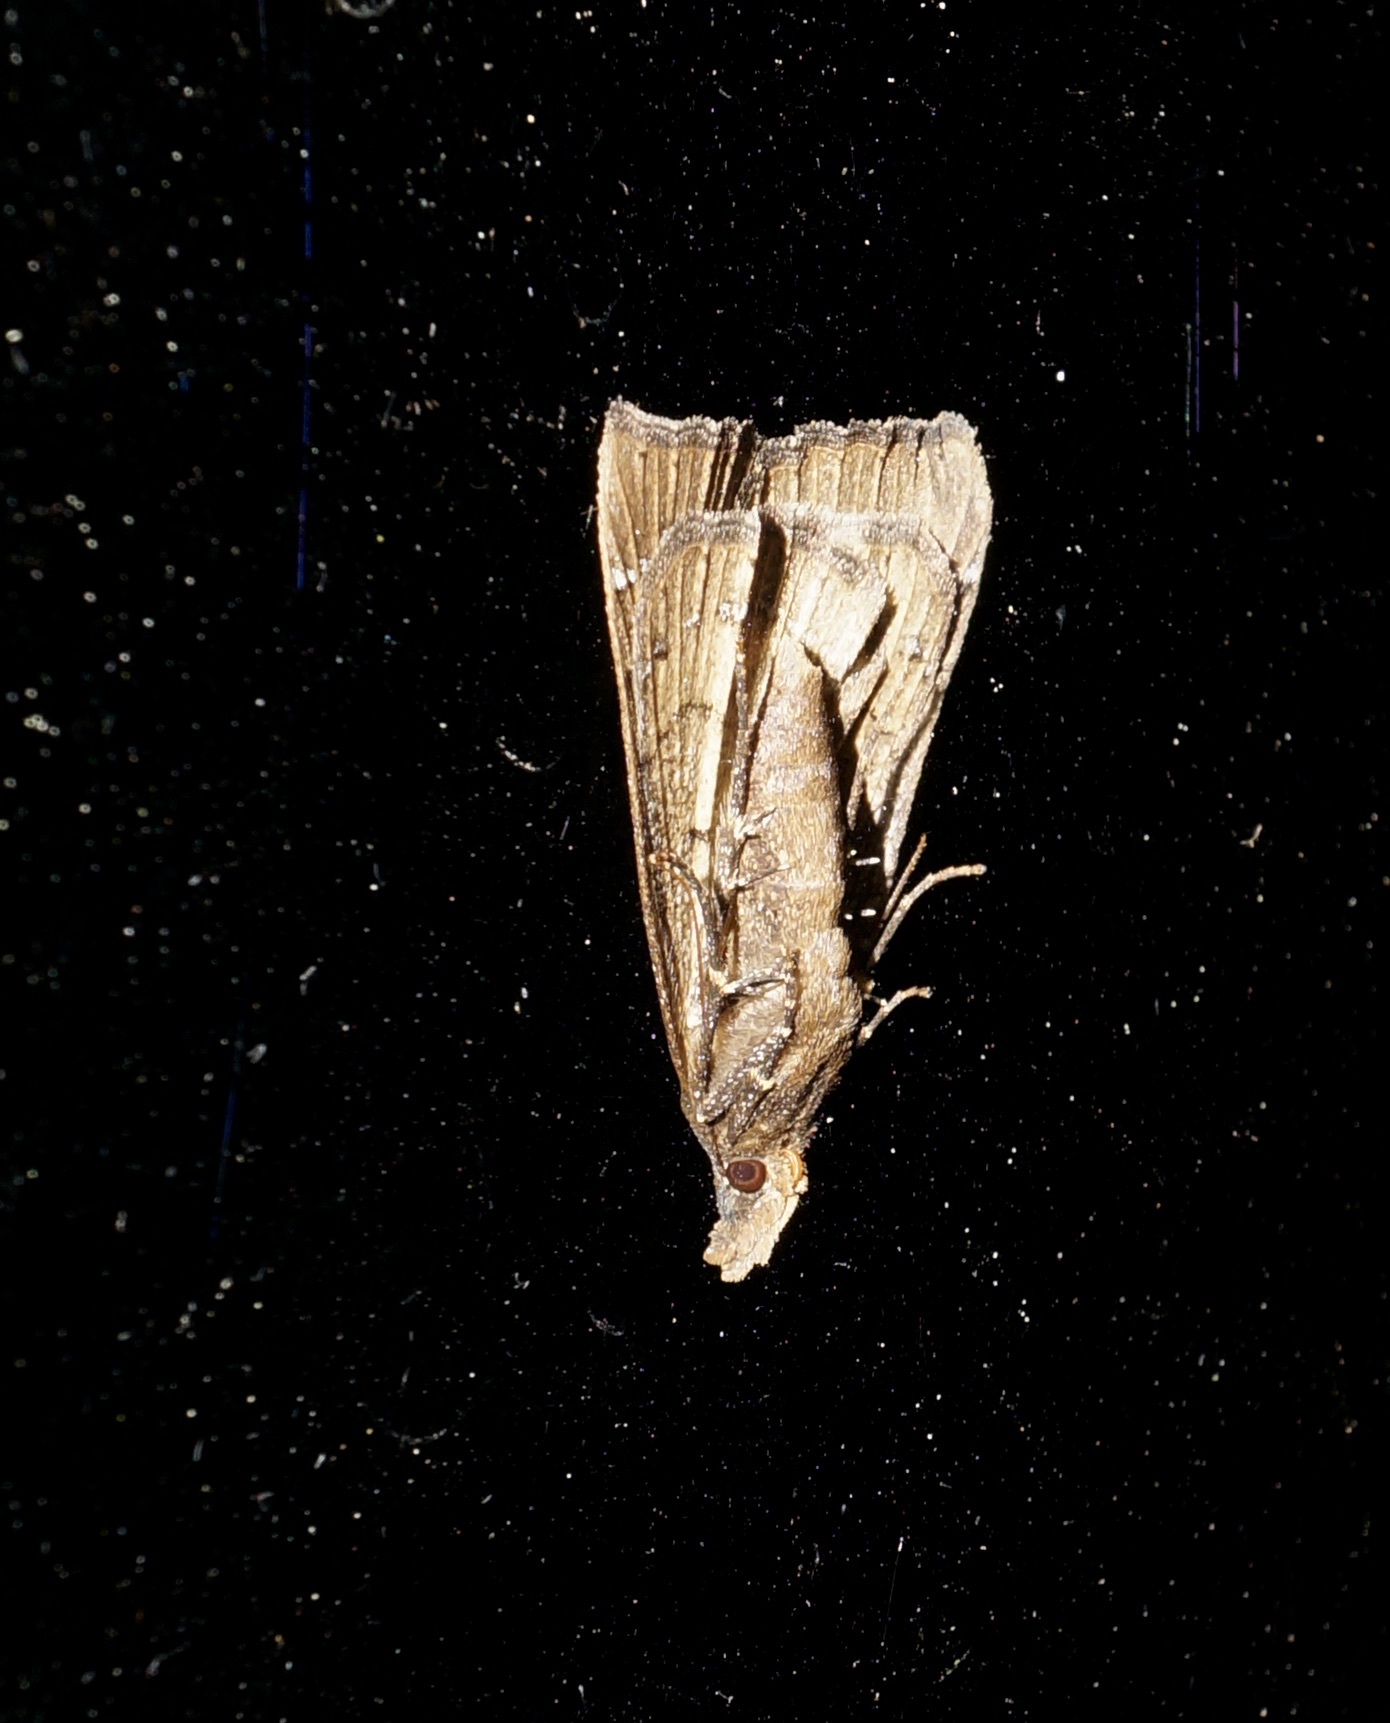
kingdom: Animalia
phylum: Arthropoda
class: Insecta
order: Lepidoptera
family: Erebidae
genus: Rhapsa
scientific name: Rhapsa scotosialis
